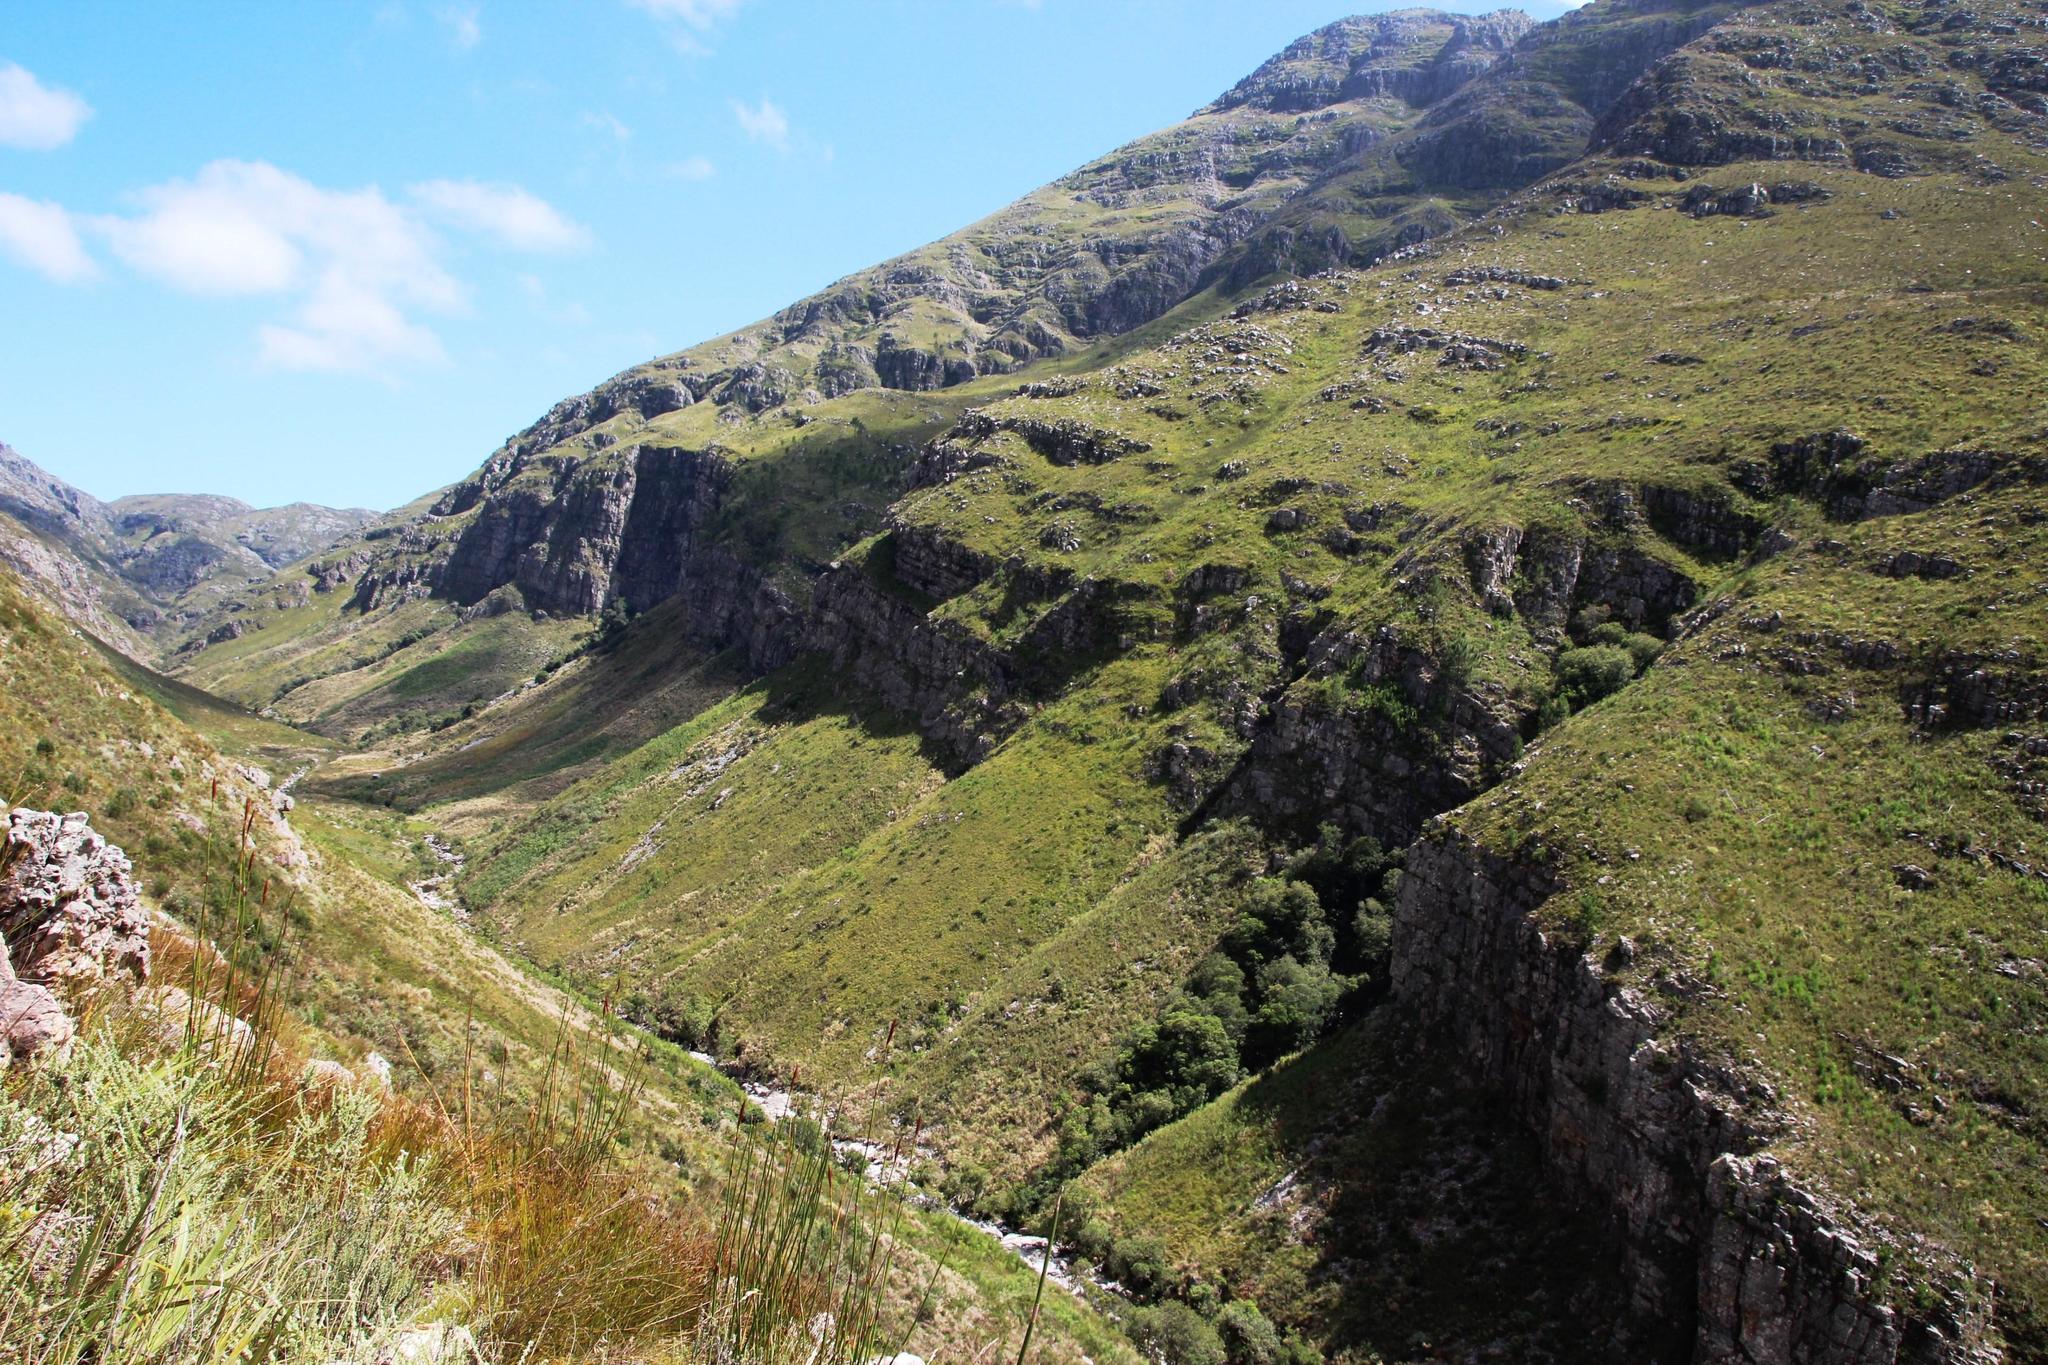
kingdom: Plantae
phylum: Tracheophyta
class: Pinopsida
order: Pinales
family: Pinaceae
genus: Pinus
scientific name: Pinus pinaster
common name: Maritime pine
